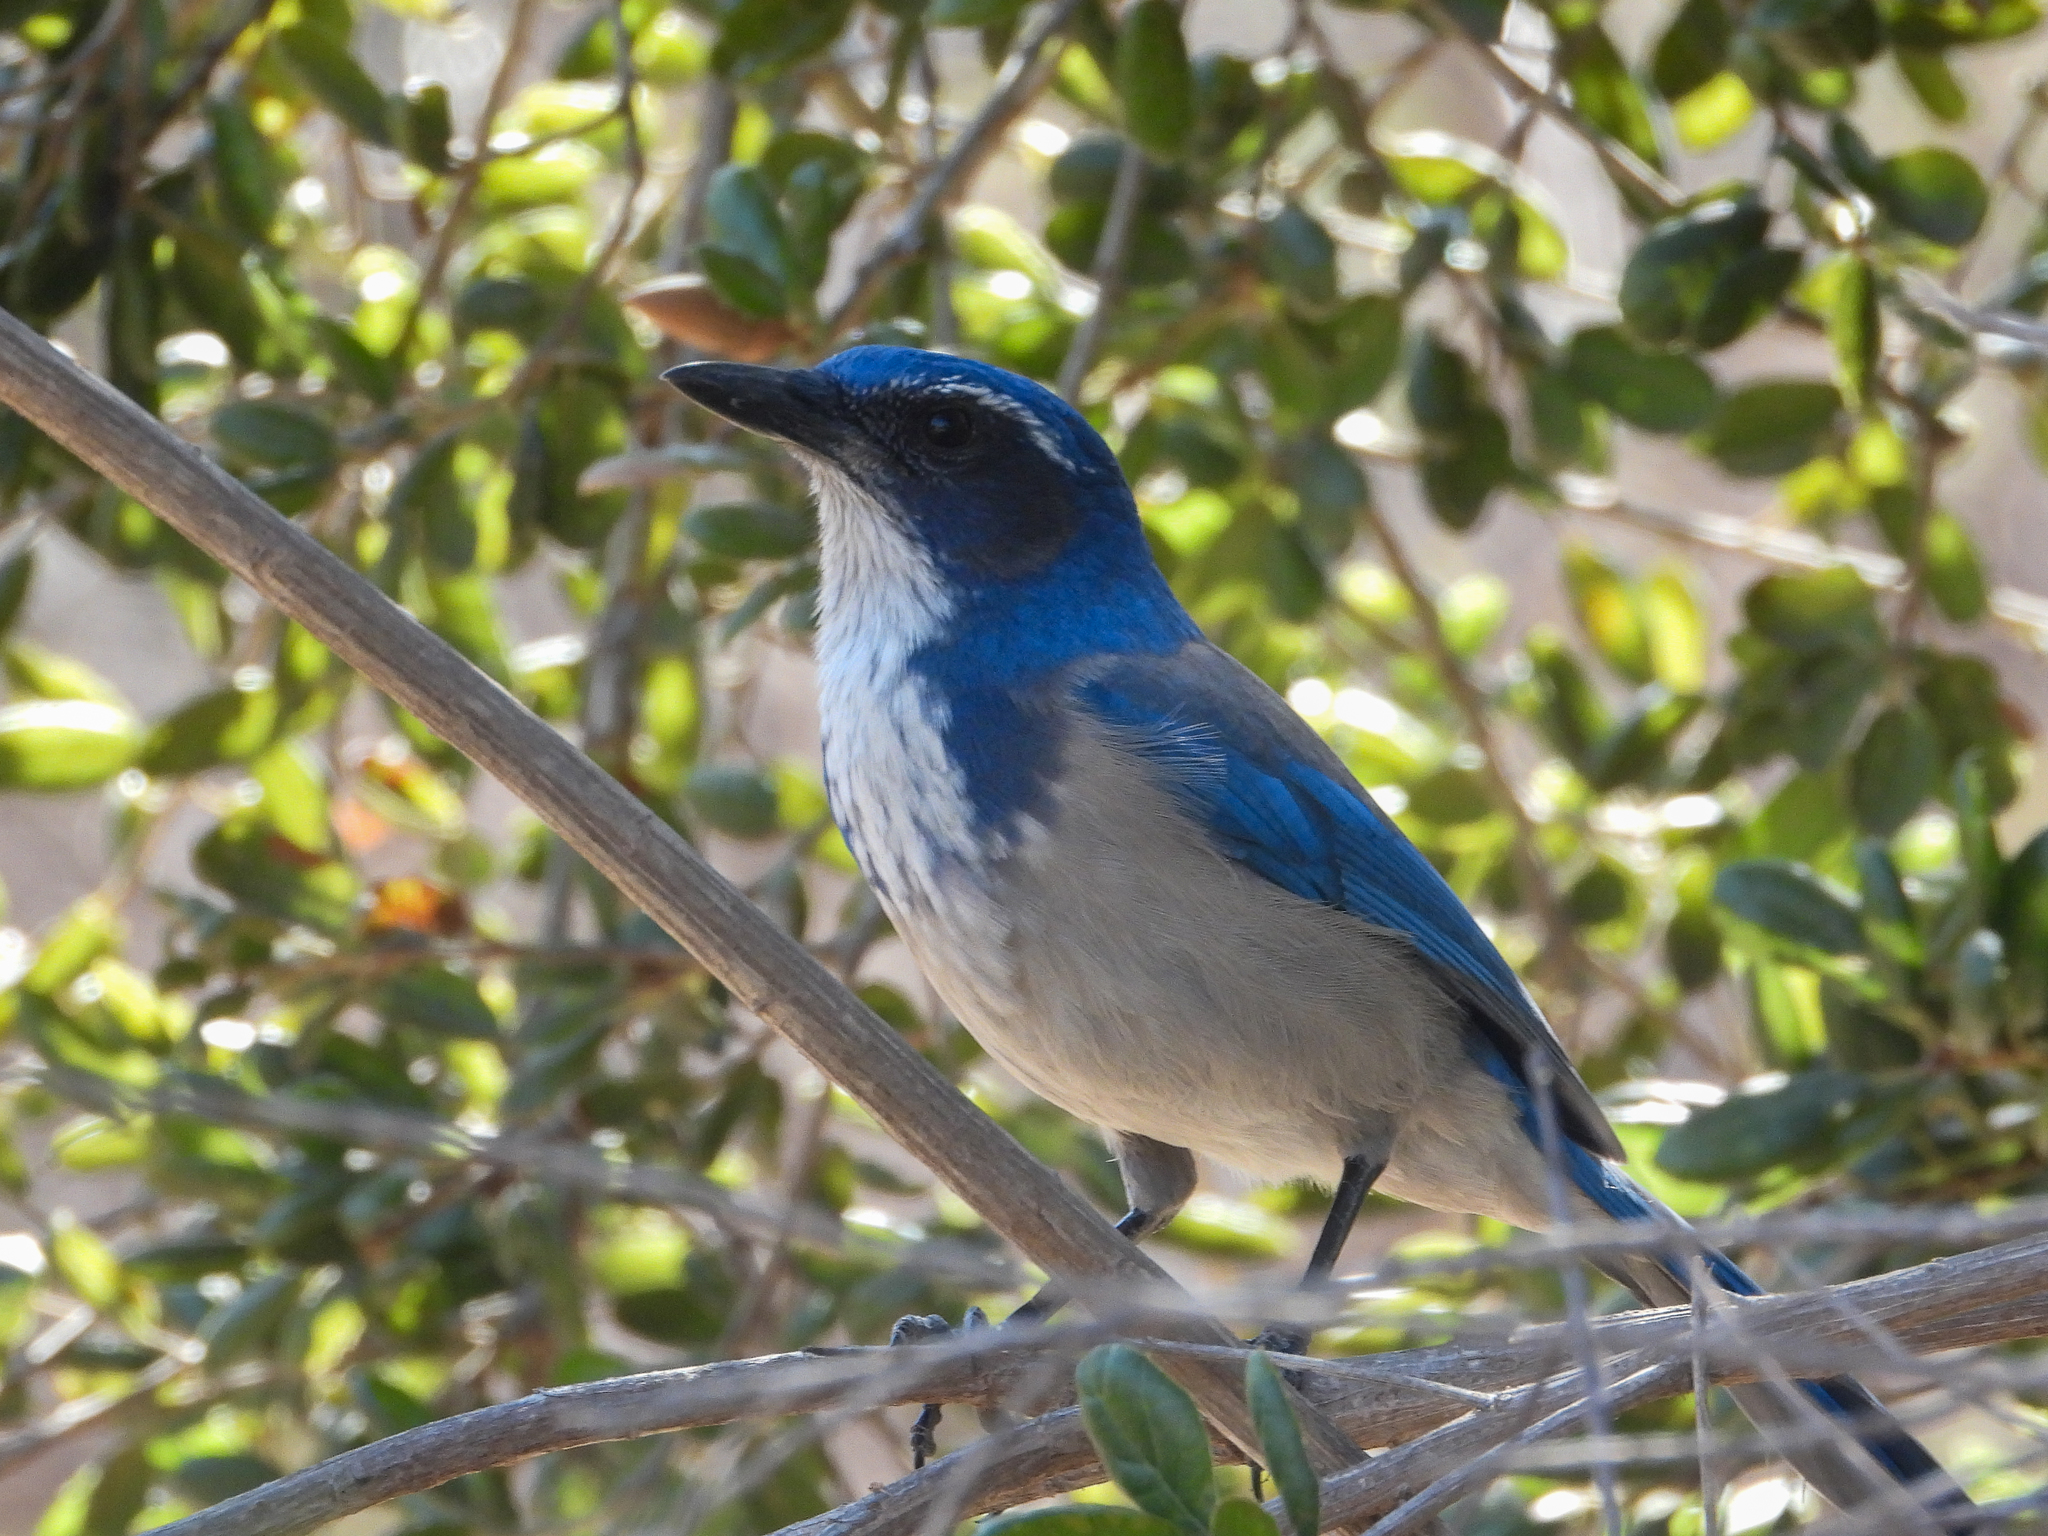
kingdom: Animalia
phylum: Chordata
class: Aves
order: Passeriformes
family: Corvidae
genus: Aphelocoma
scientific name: Aphelocoma californica
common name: California scrub-jay
